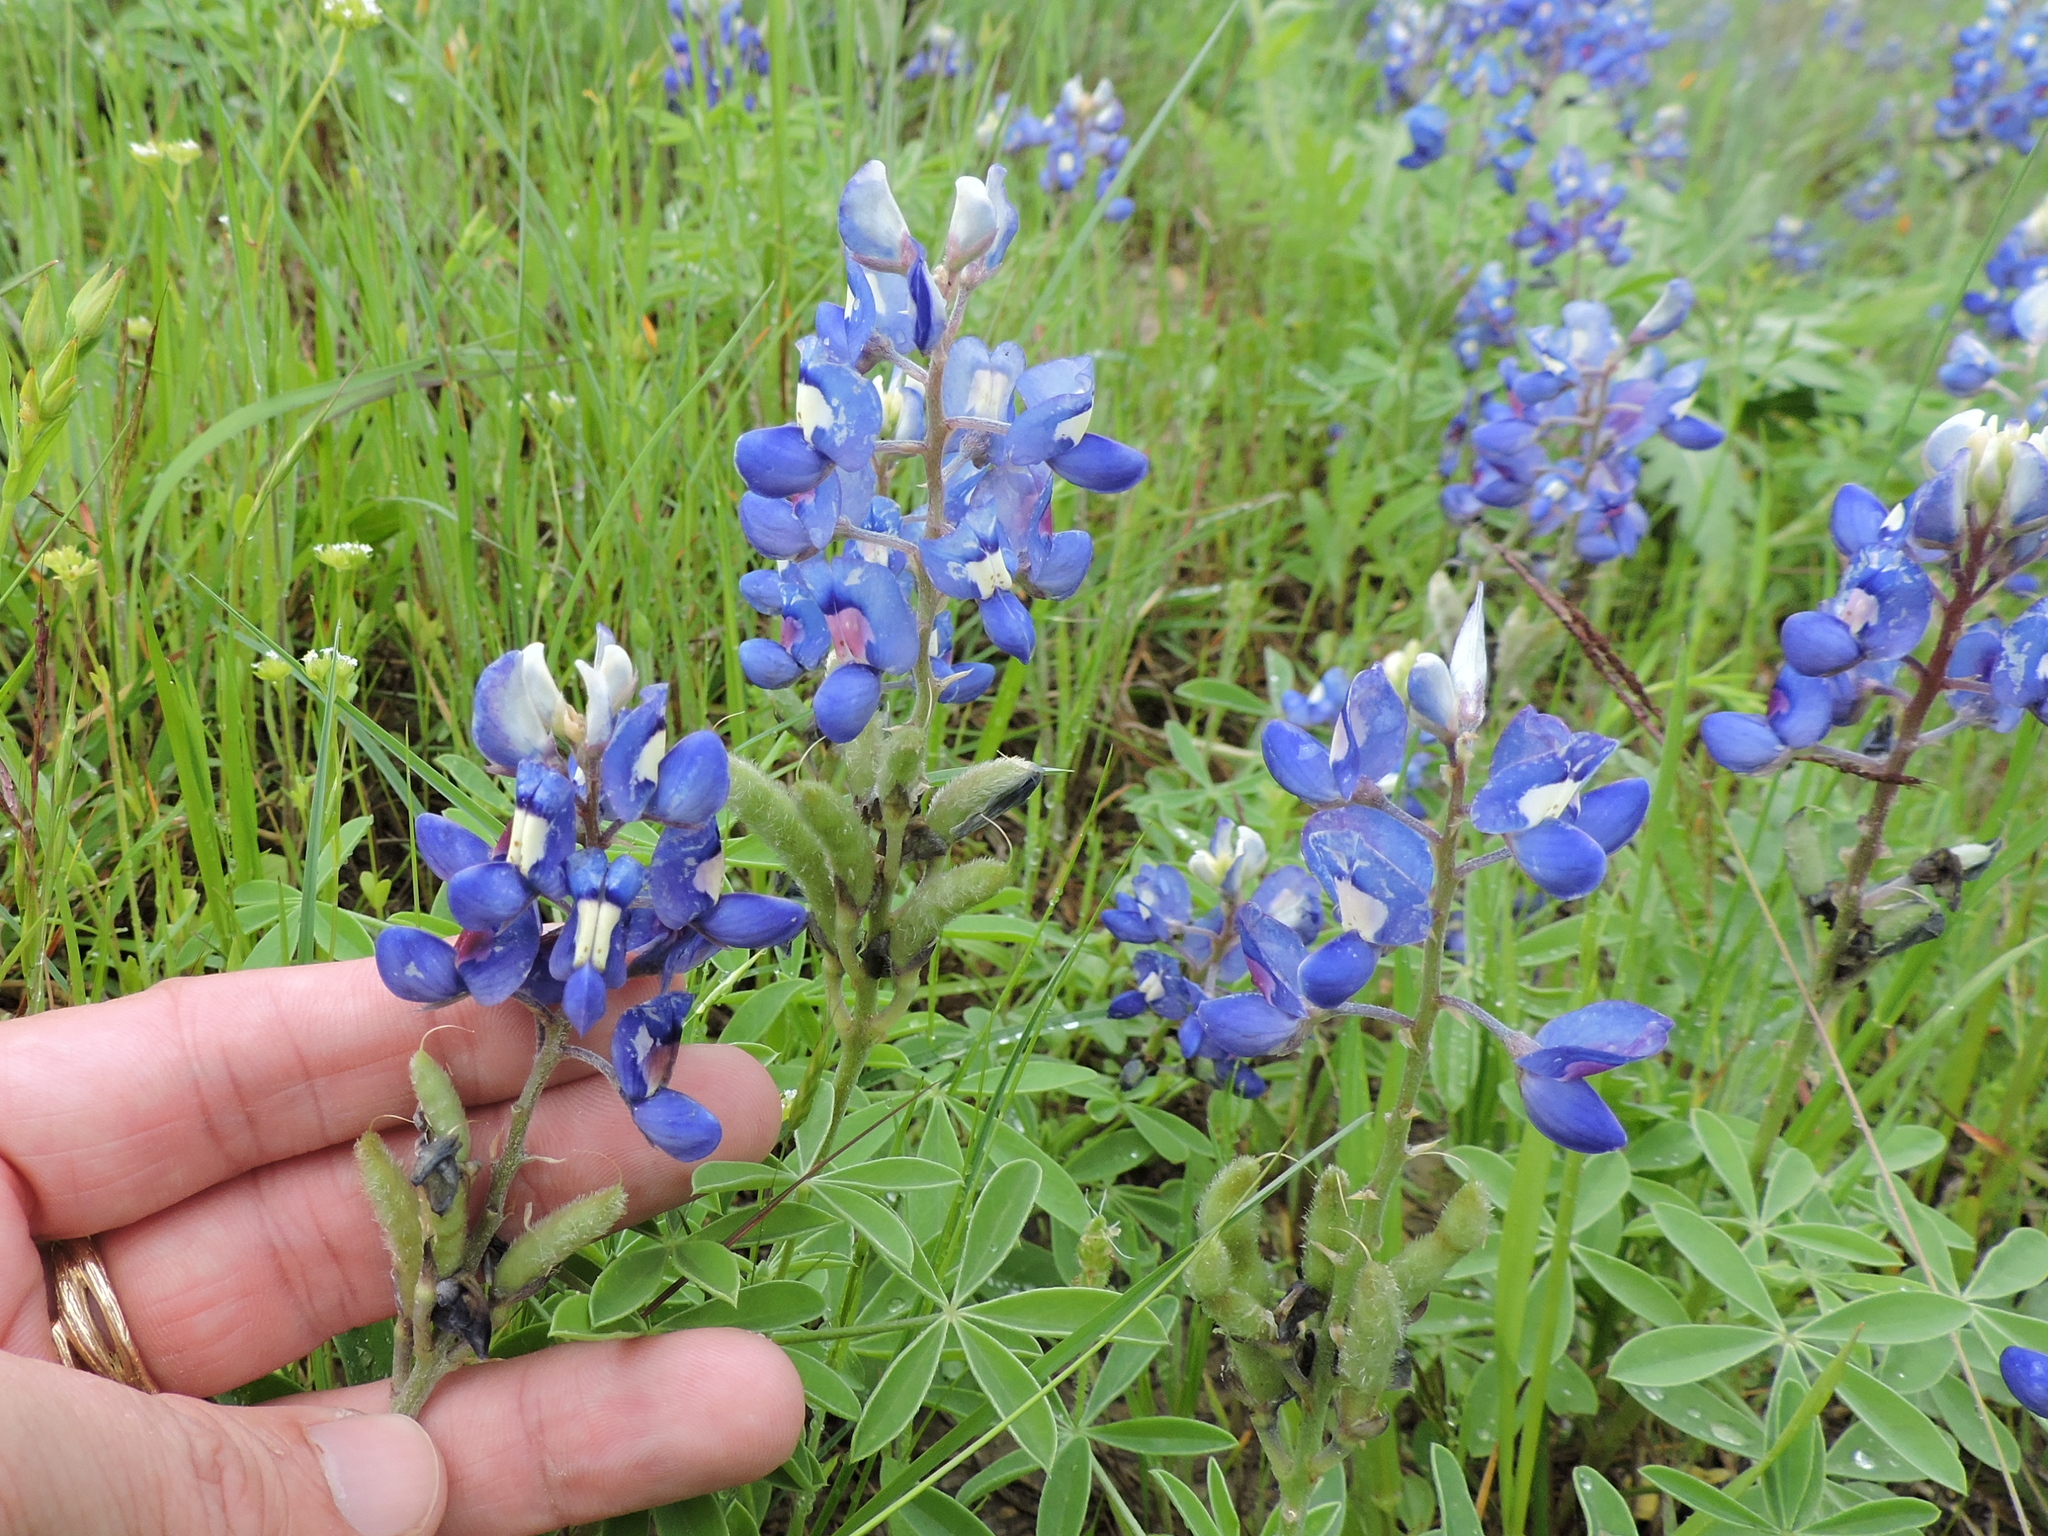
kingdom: Plantae
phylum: Tracheophyta
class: Magnoliopsida
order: Fabales
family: Fabaceae
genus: Lupinus
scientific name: Lupinus texensis
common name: Texas bluebonnet
